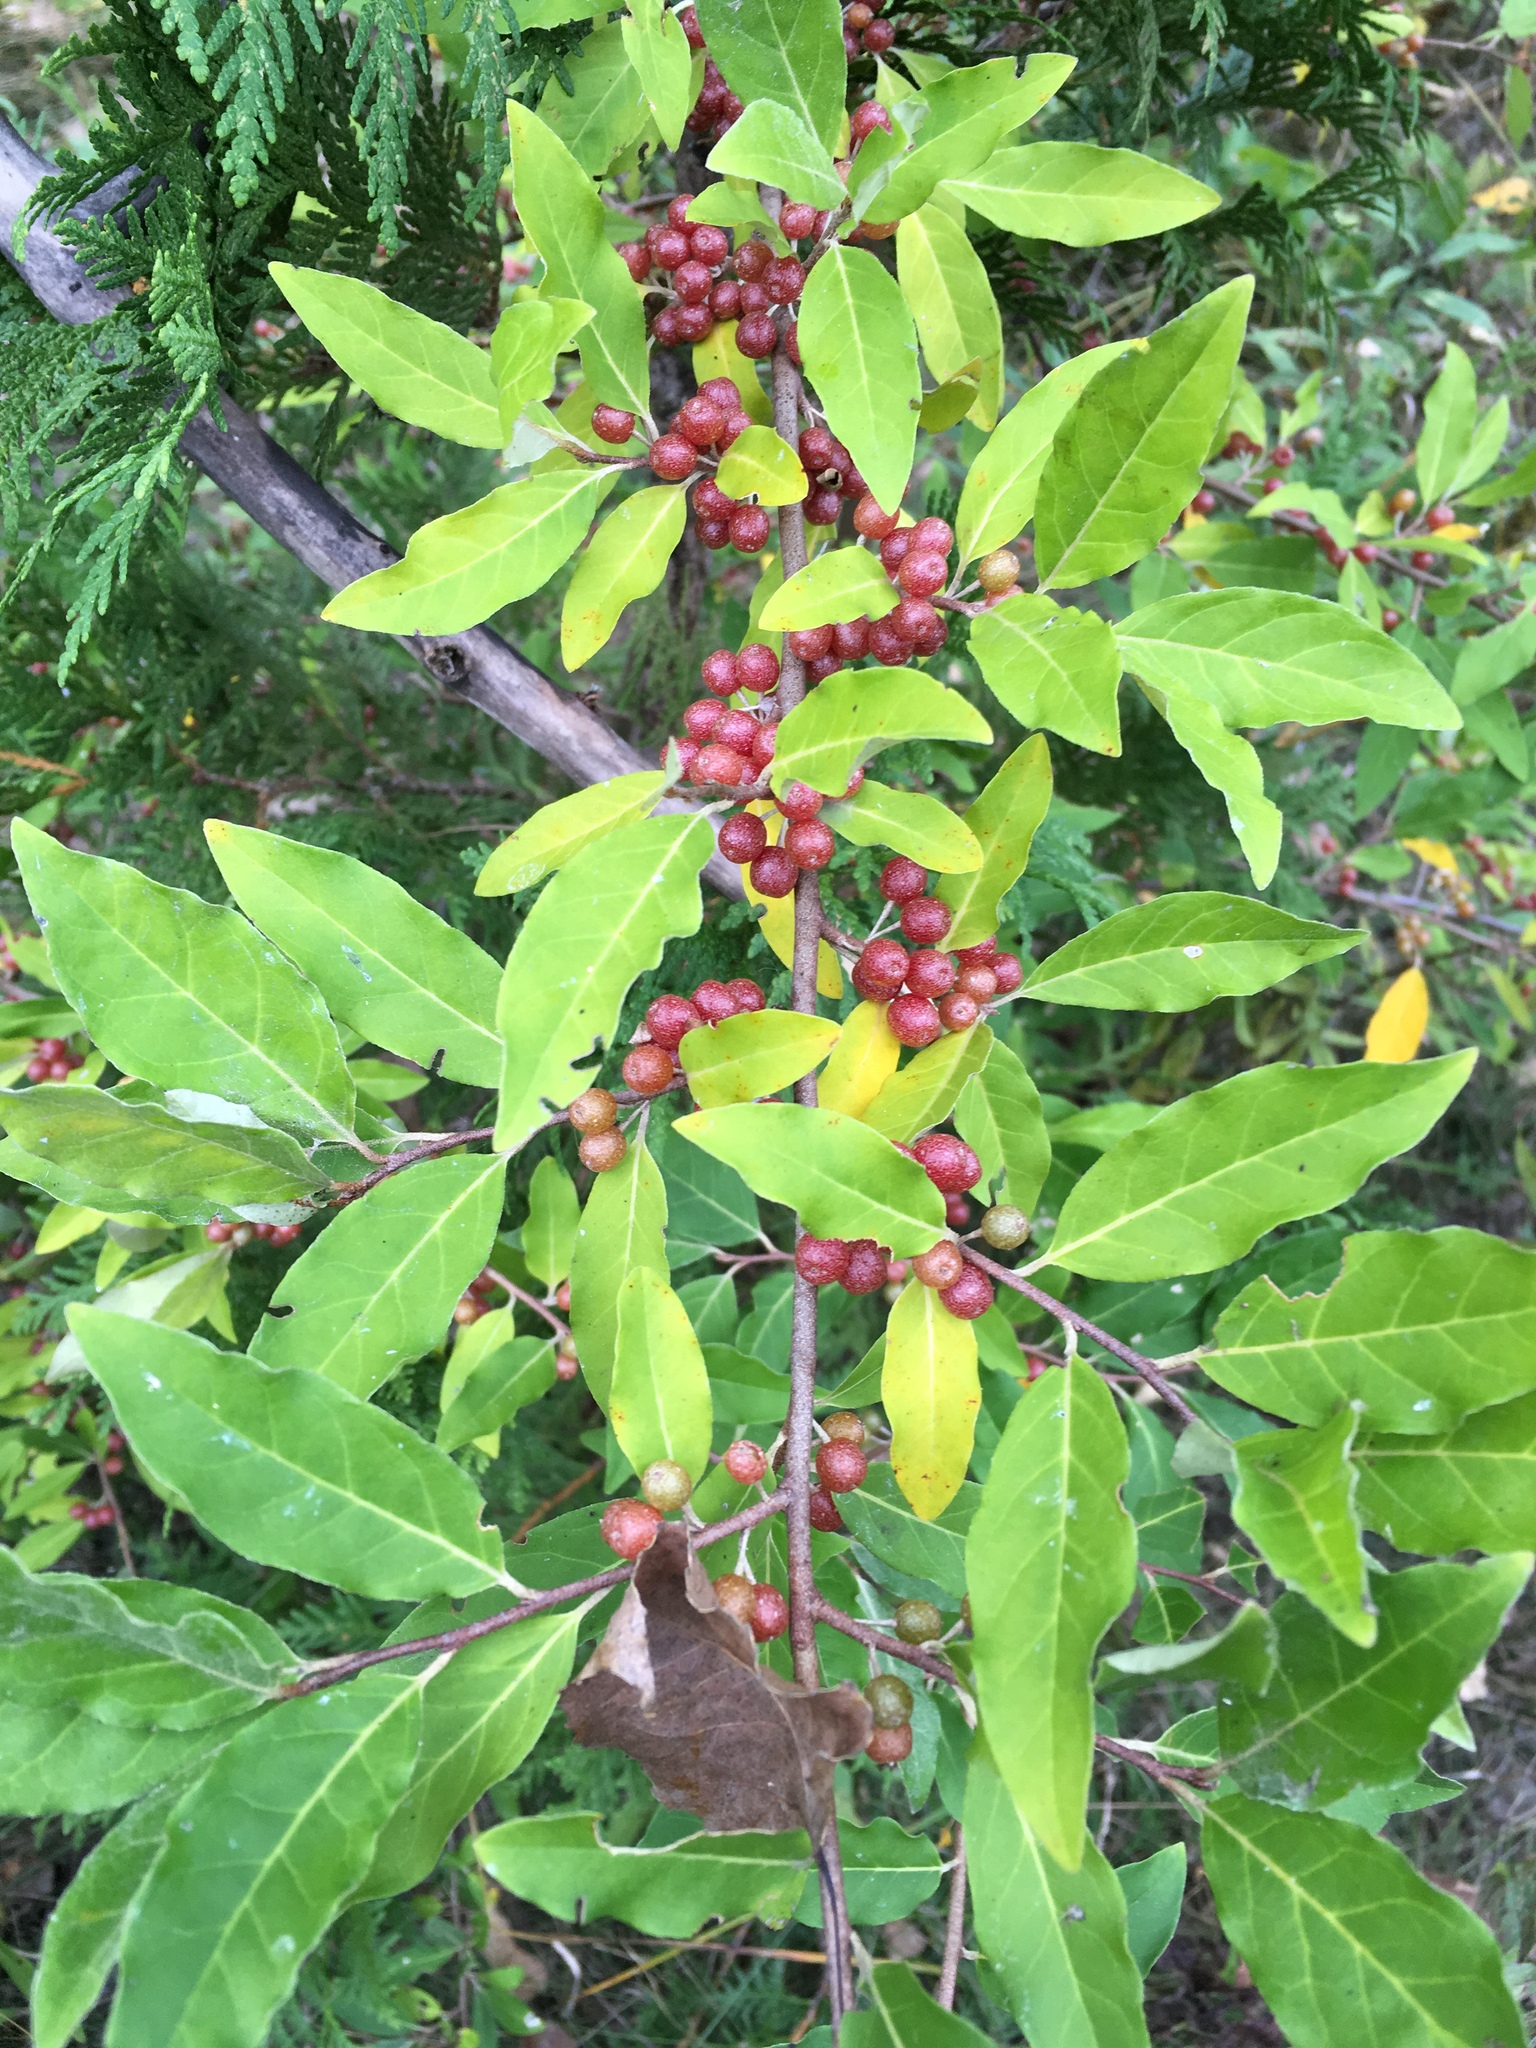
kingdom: Plantae
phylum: Tracheophyta
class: Magnoliopsida
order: Rosales
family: Elaeagnaceae
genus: Elaeagnus
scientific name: Elaeagnus umbellata
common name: Autumn olive
